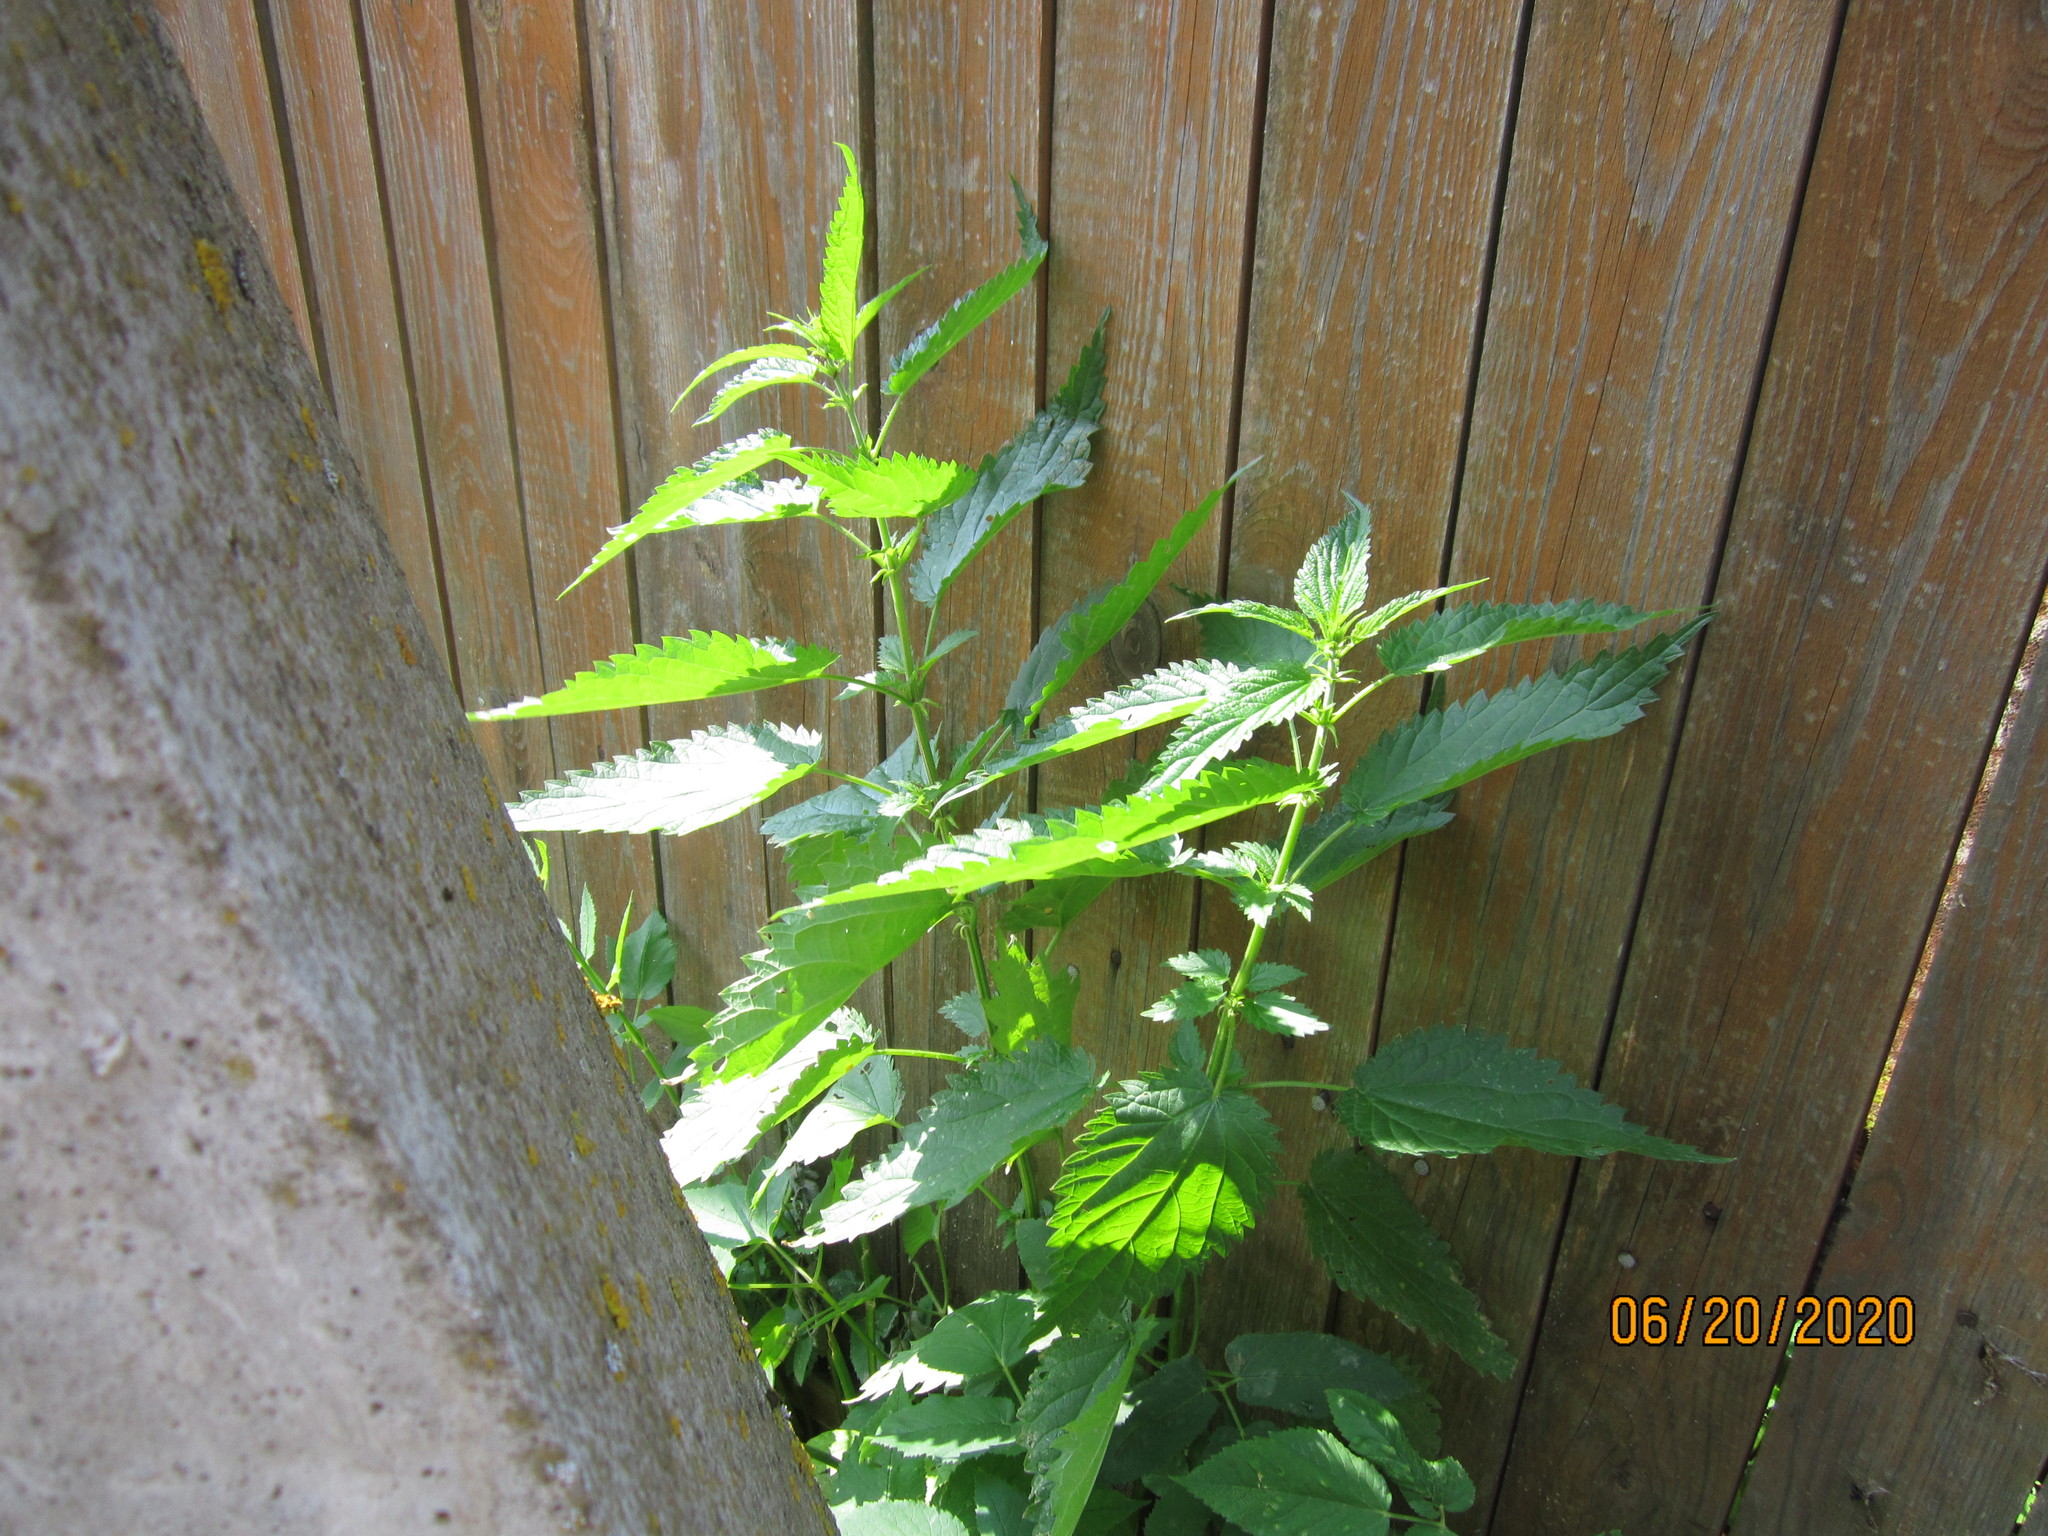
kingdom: Plantae
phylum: Tracheophyta
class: Magnoliopsida
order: Rosales
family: Urticaceae
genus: Urtica
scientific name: Urtica dioica
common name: Common nettle
